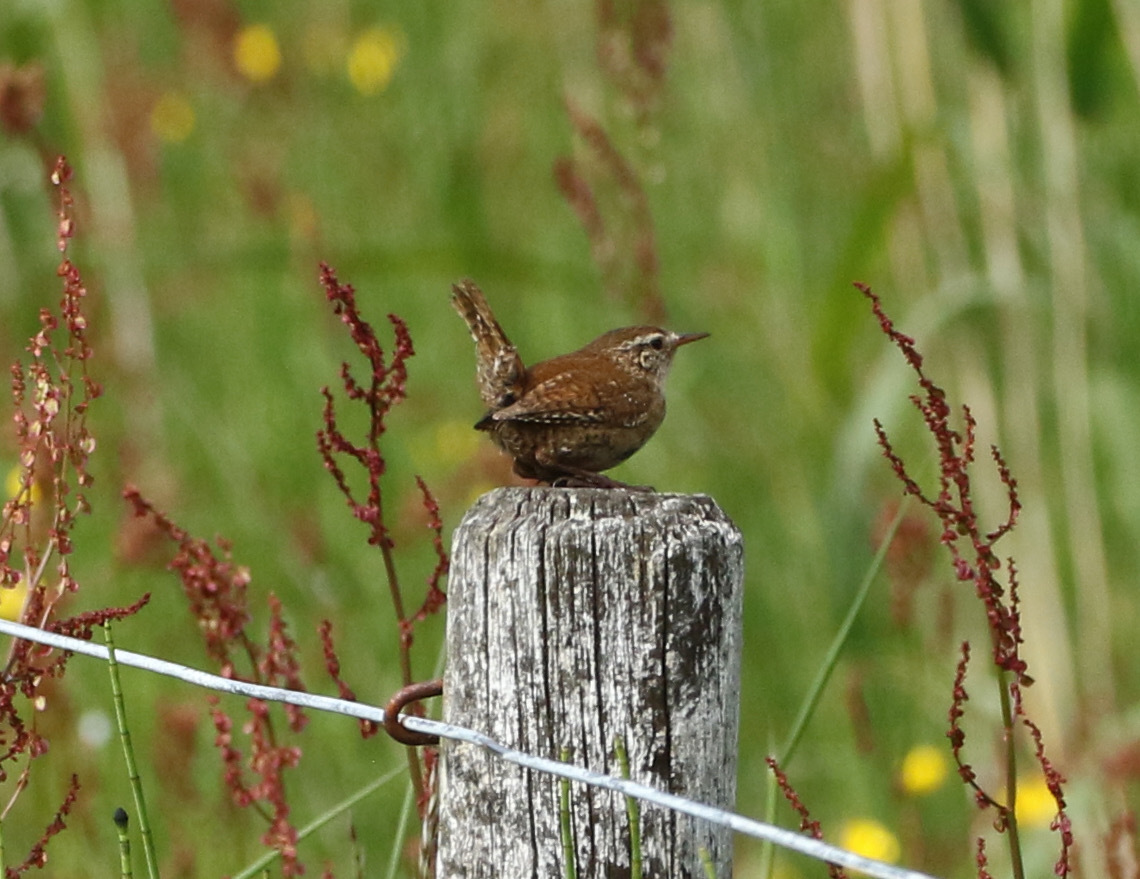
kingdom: Animalia
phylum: Chordata
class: Aves
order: Passeriformes
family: Troglodytidae
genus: Troglodytes
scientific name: Troglodytes troglodytes
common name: Eurasian wren
